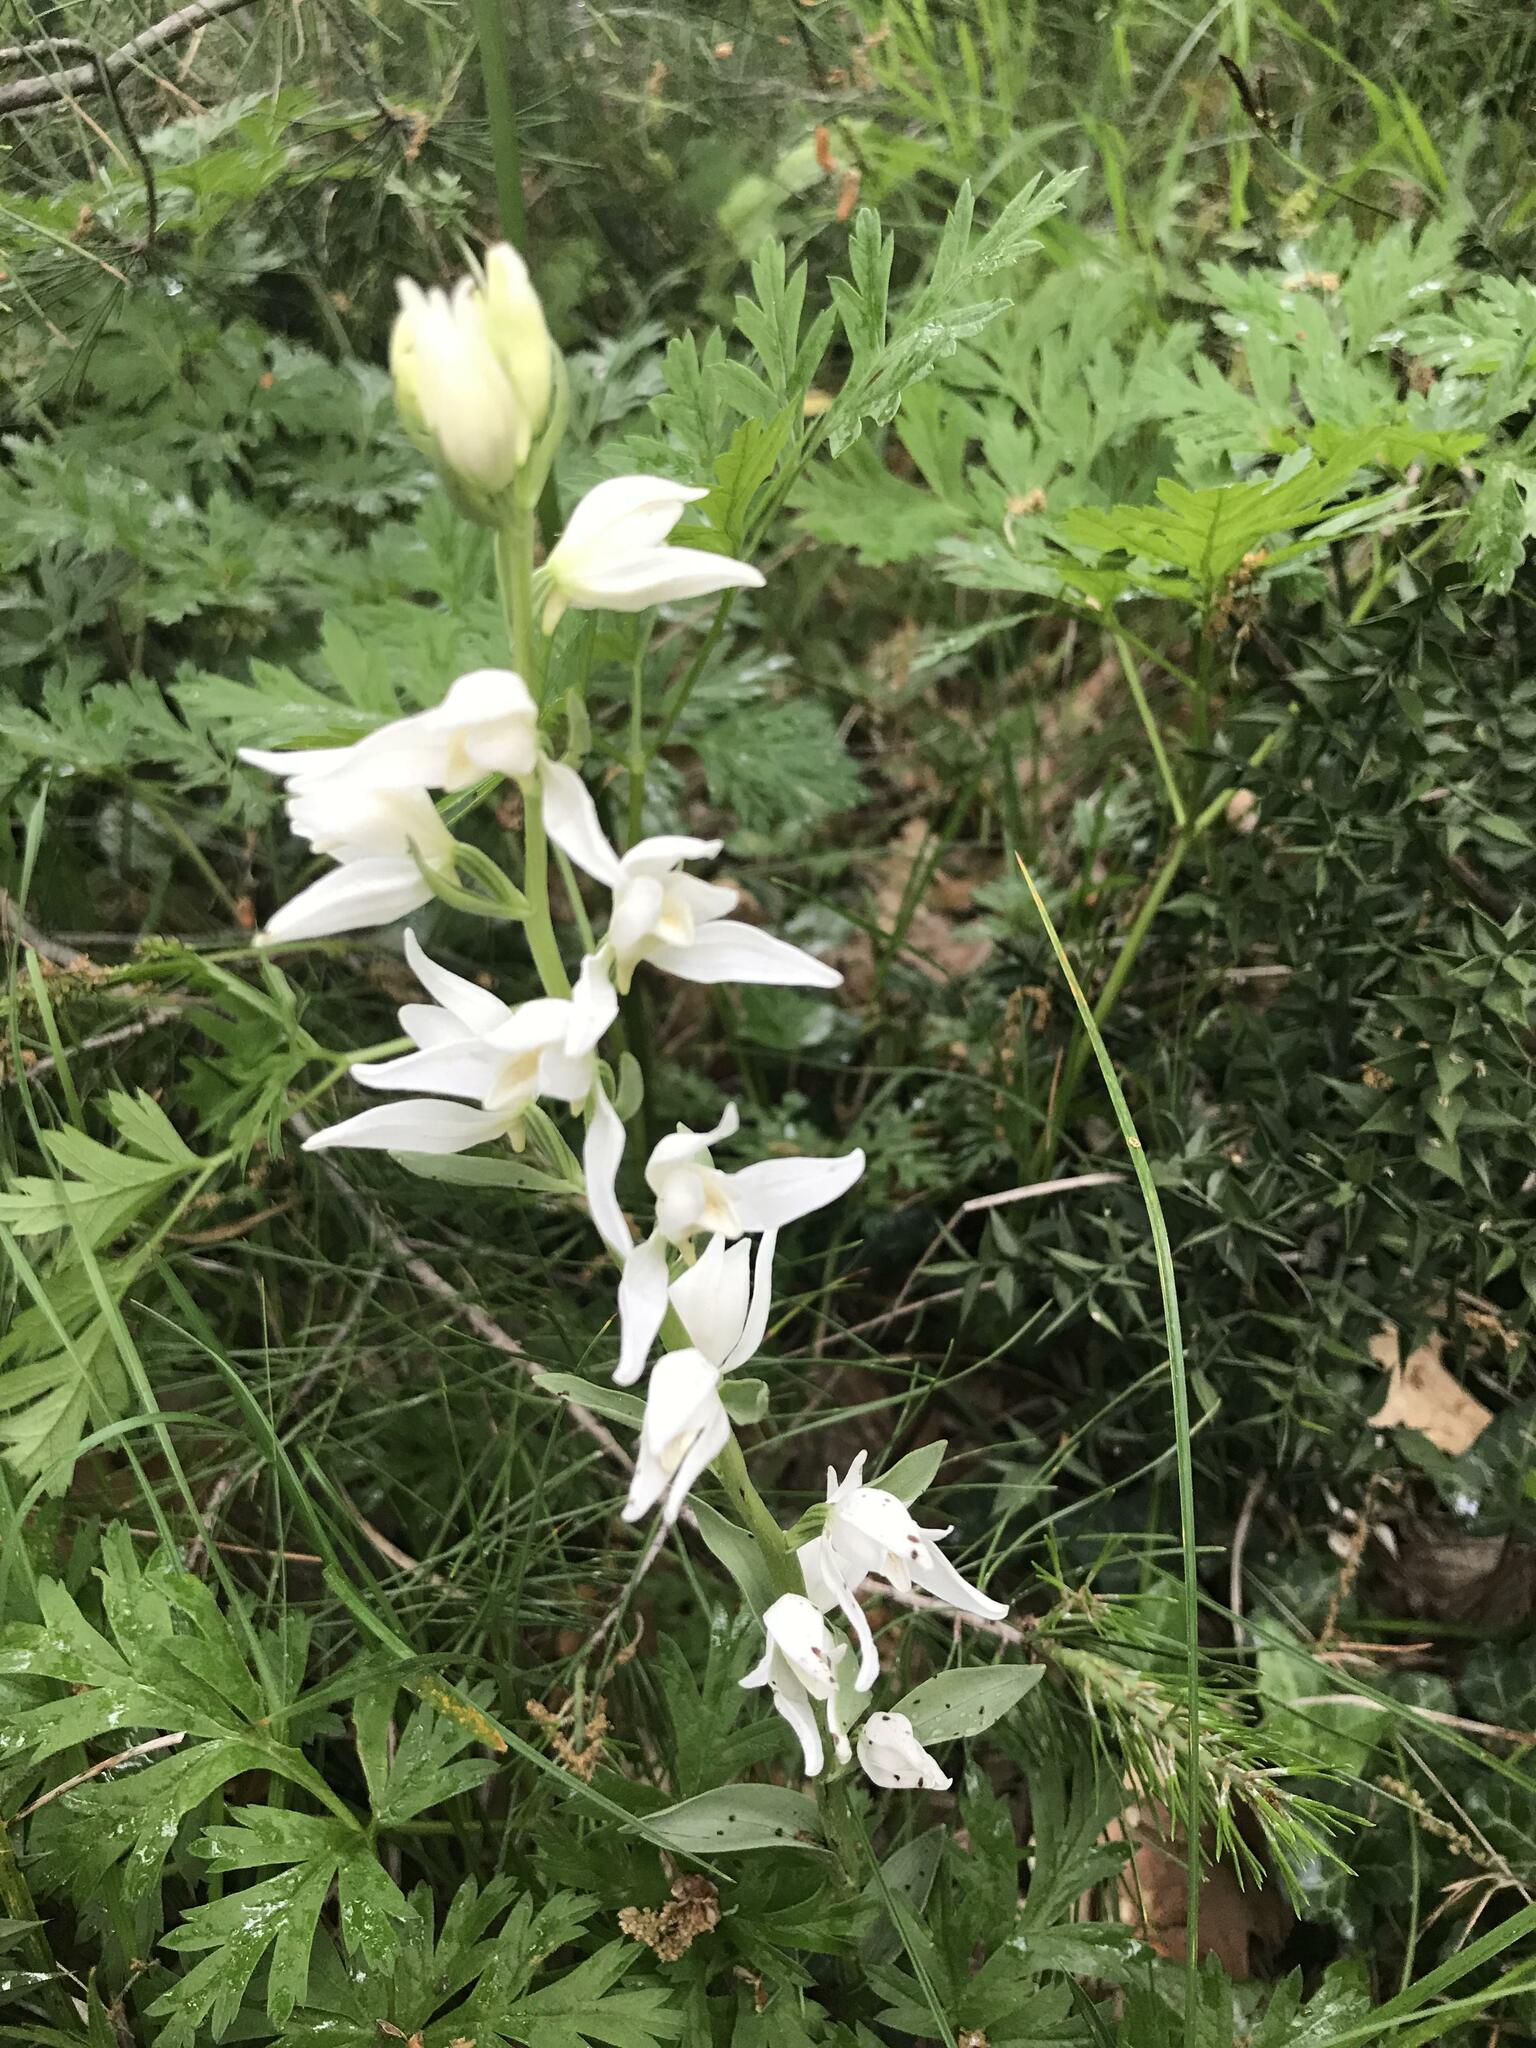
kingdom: Plantae
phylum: Tracheophyta
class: Liliopsida
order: Asparagales
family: Orchidaceae
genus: Cephalanthera
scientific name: Cephalanthera epipactoides
